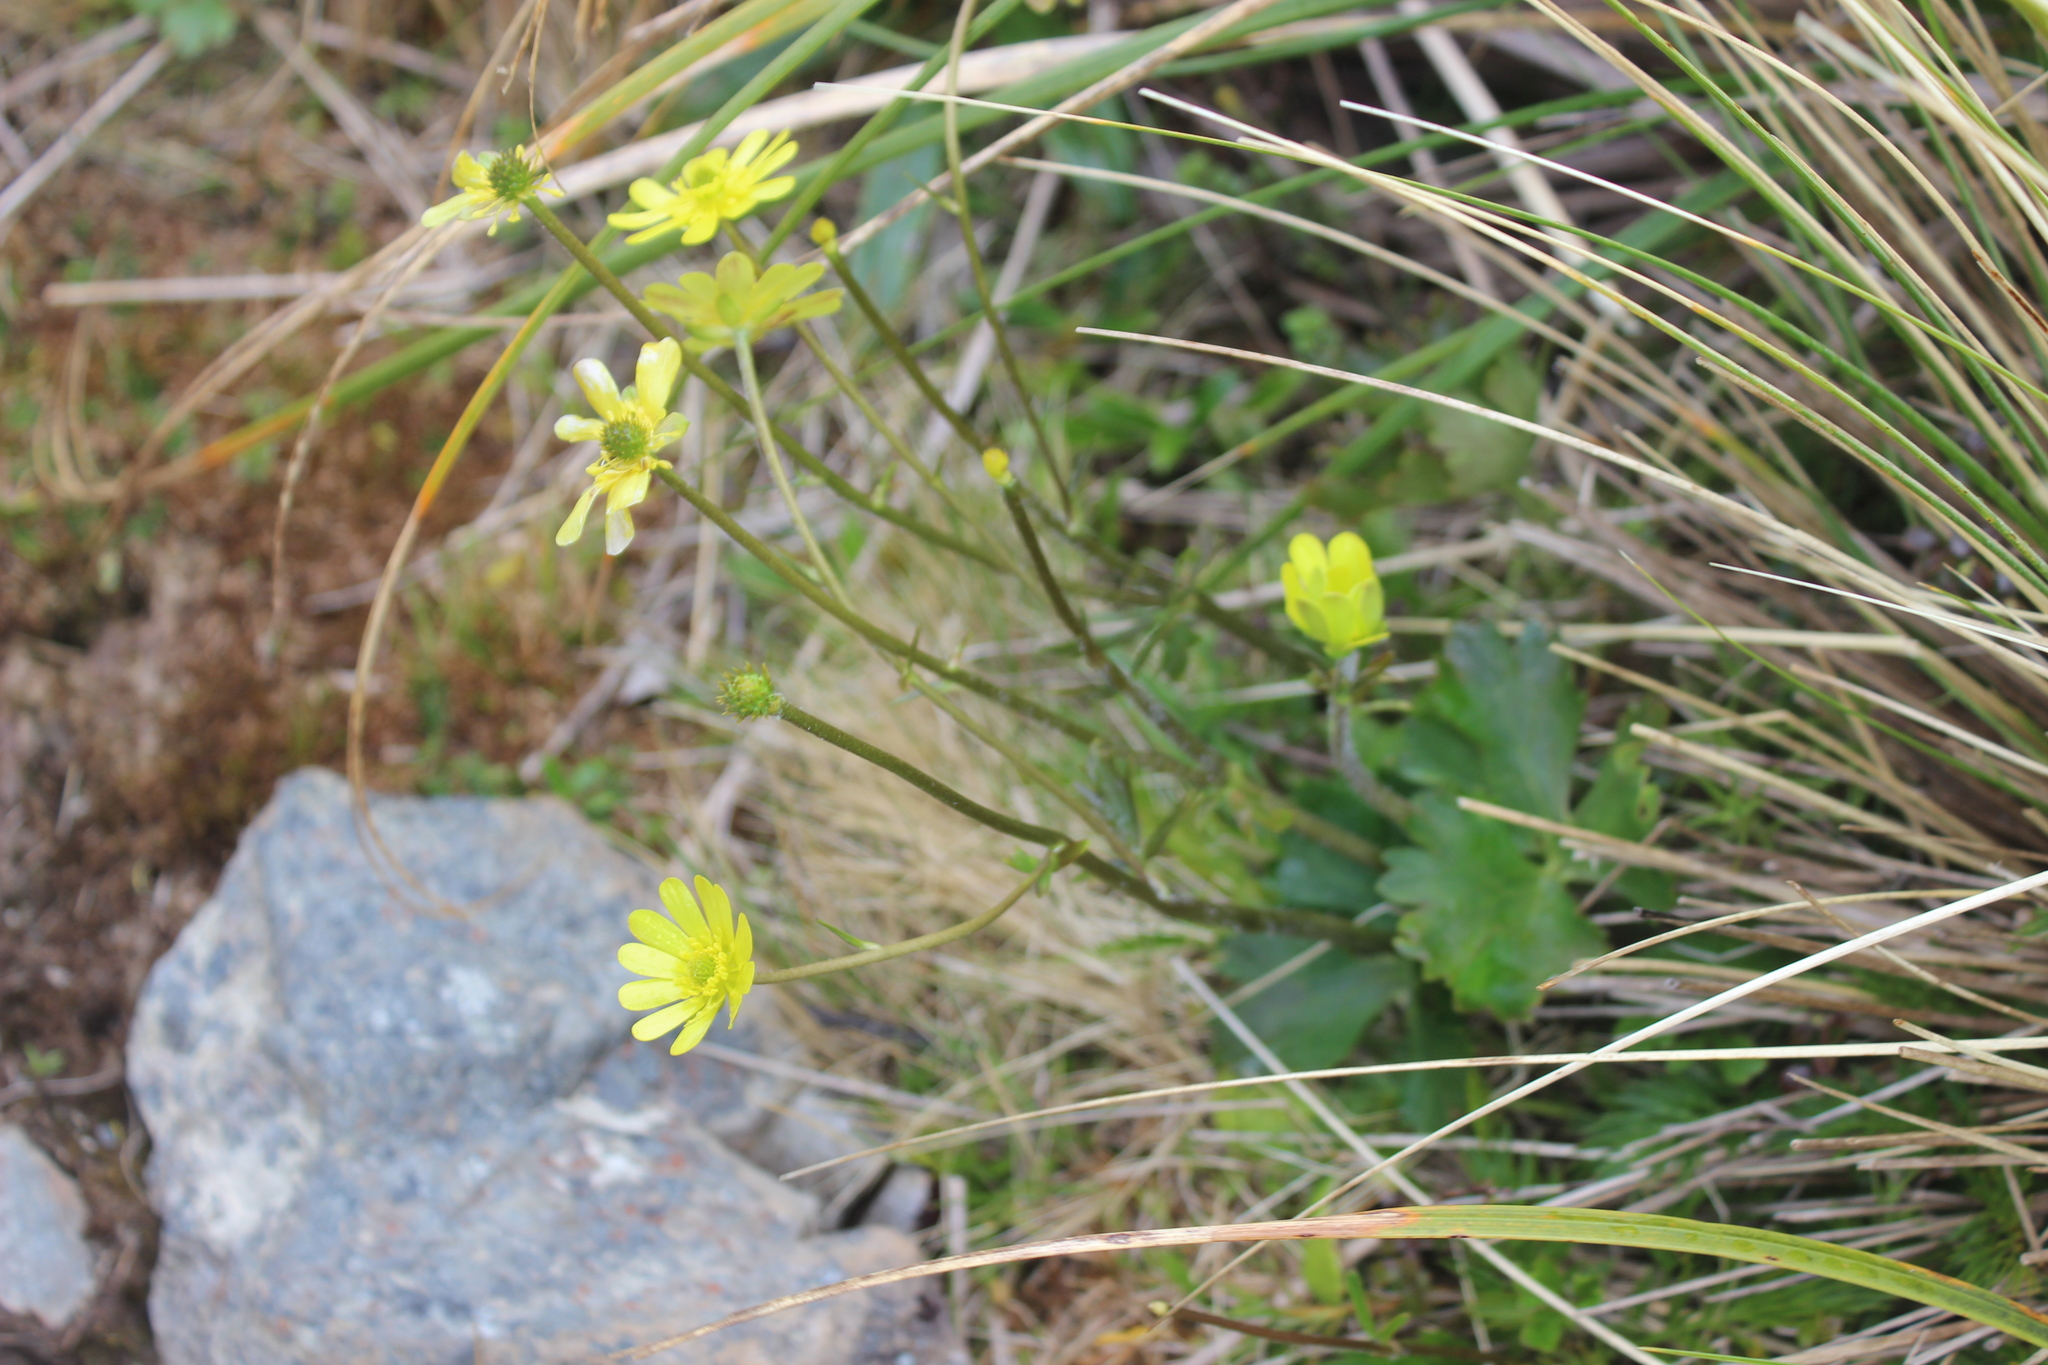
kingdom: Plantae
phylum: Tracheophyta
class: Magnoliopsida
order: Ranunculales
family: Ranunculaceae
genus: Ranunculus
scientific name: Ranunculus verticillatus
